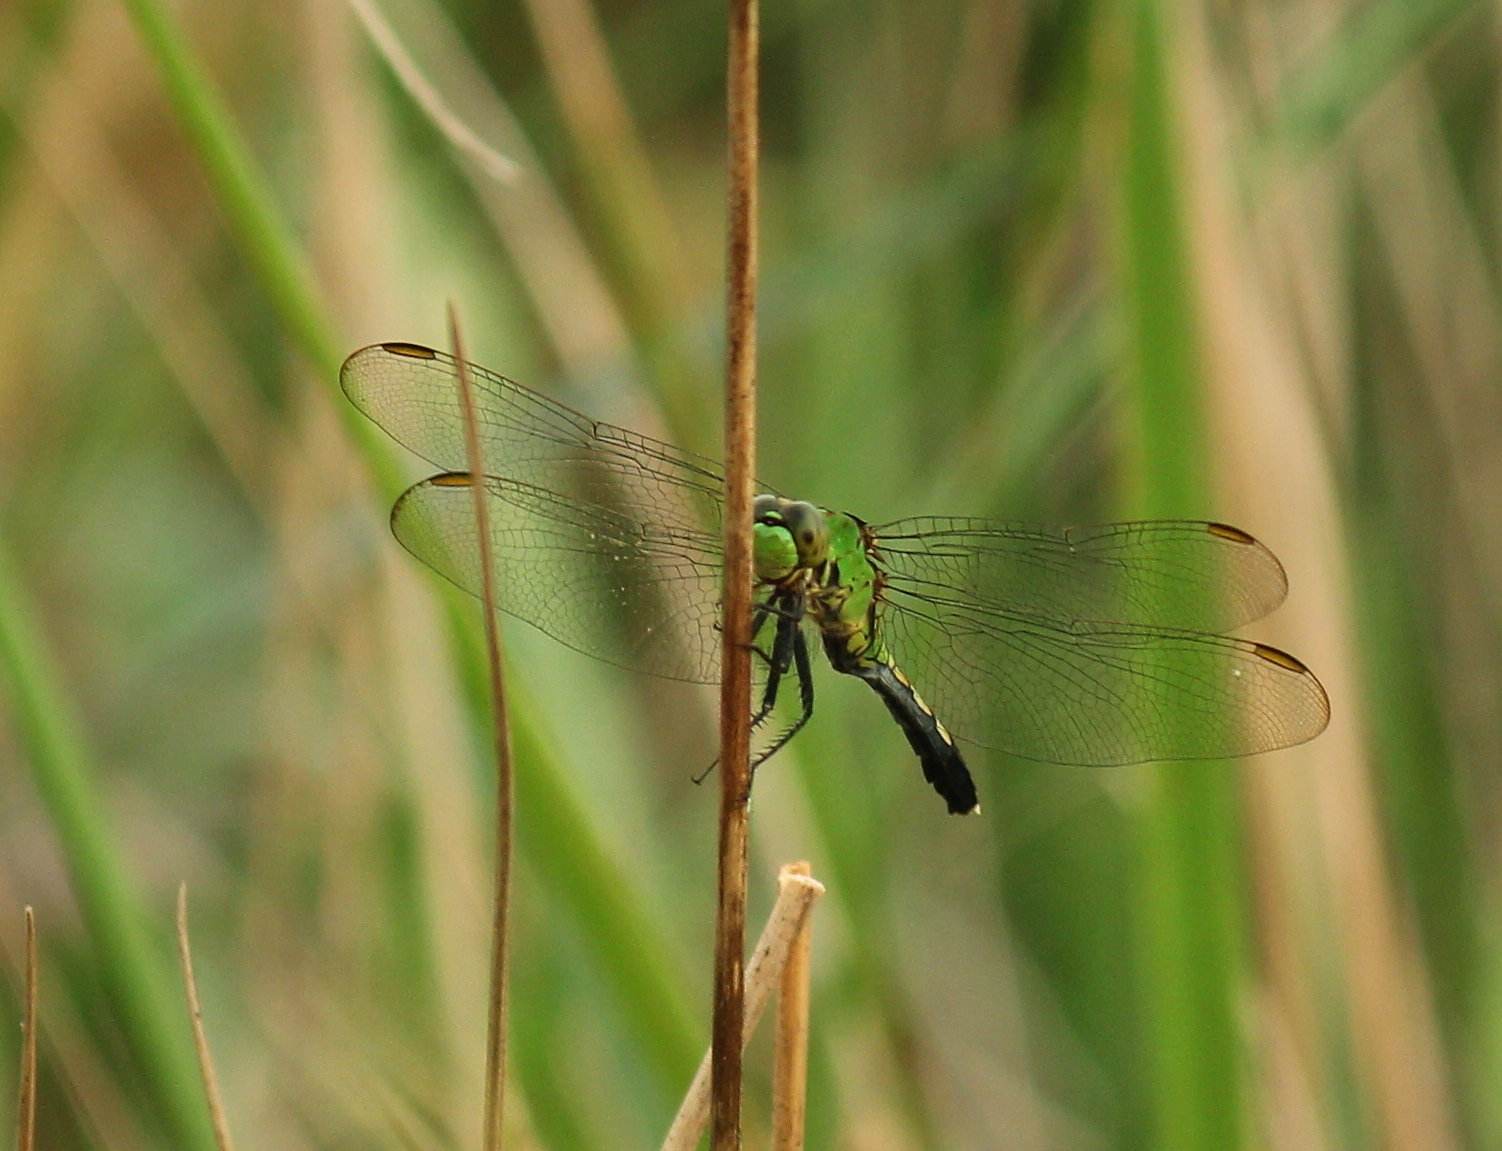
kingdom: Animalia
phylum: Arthropoda
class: Insecta
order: Odonata
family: Libellulidae
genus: Erythemis
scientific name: Erythemis simplicicollis
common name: Eastern pondhawk
